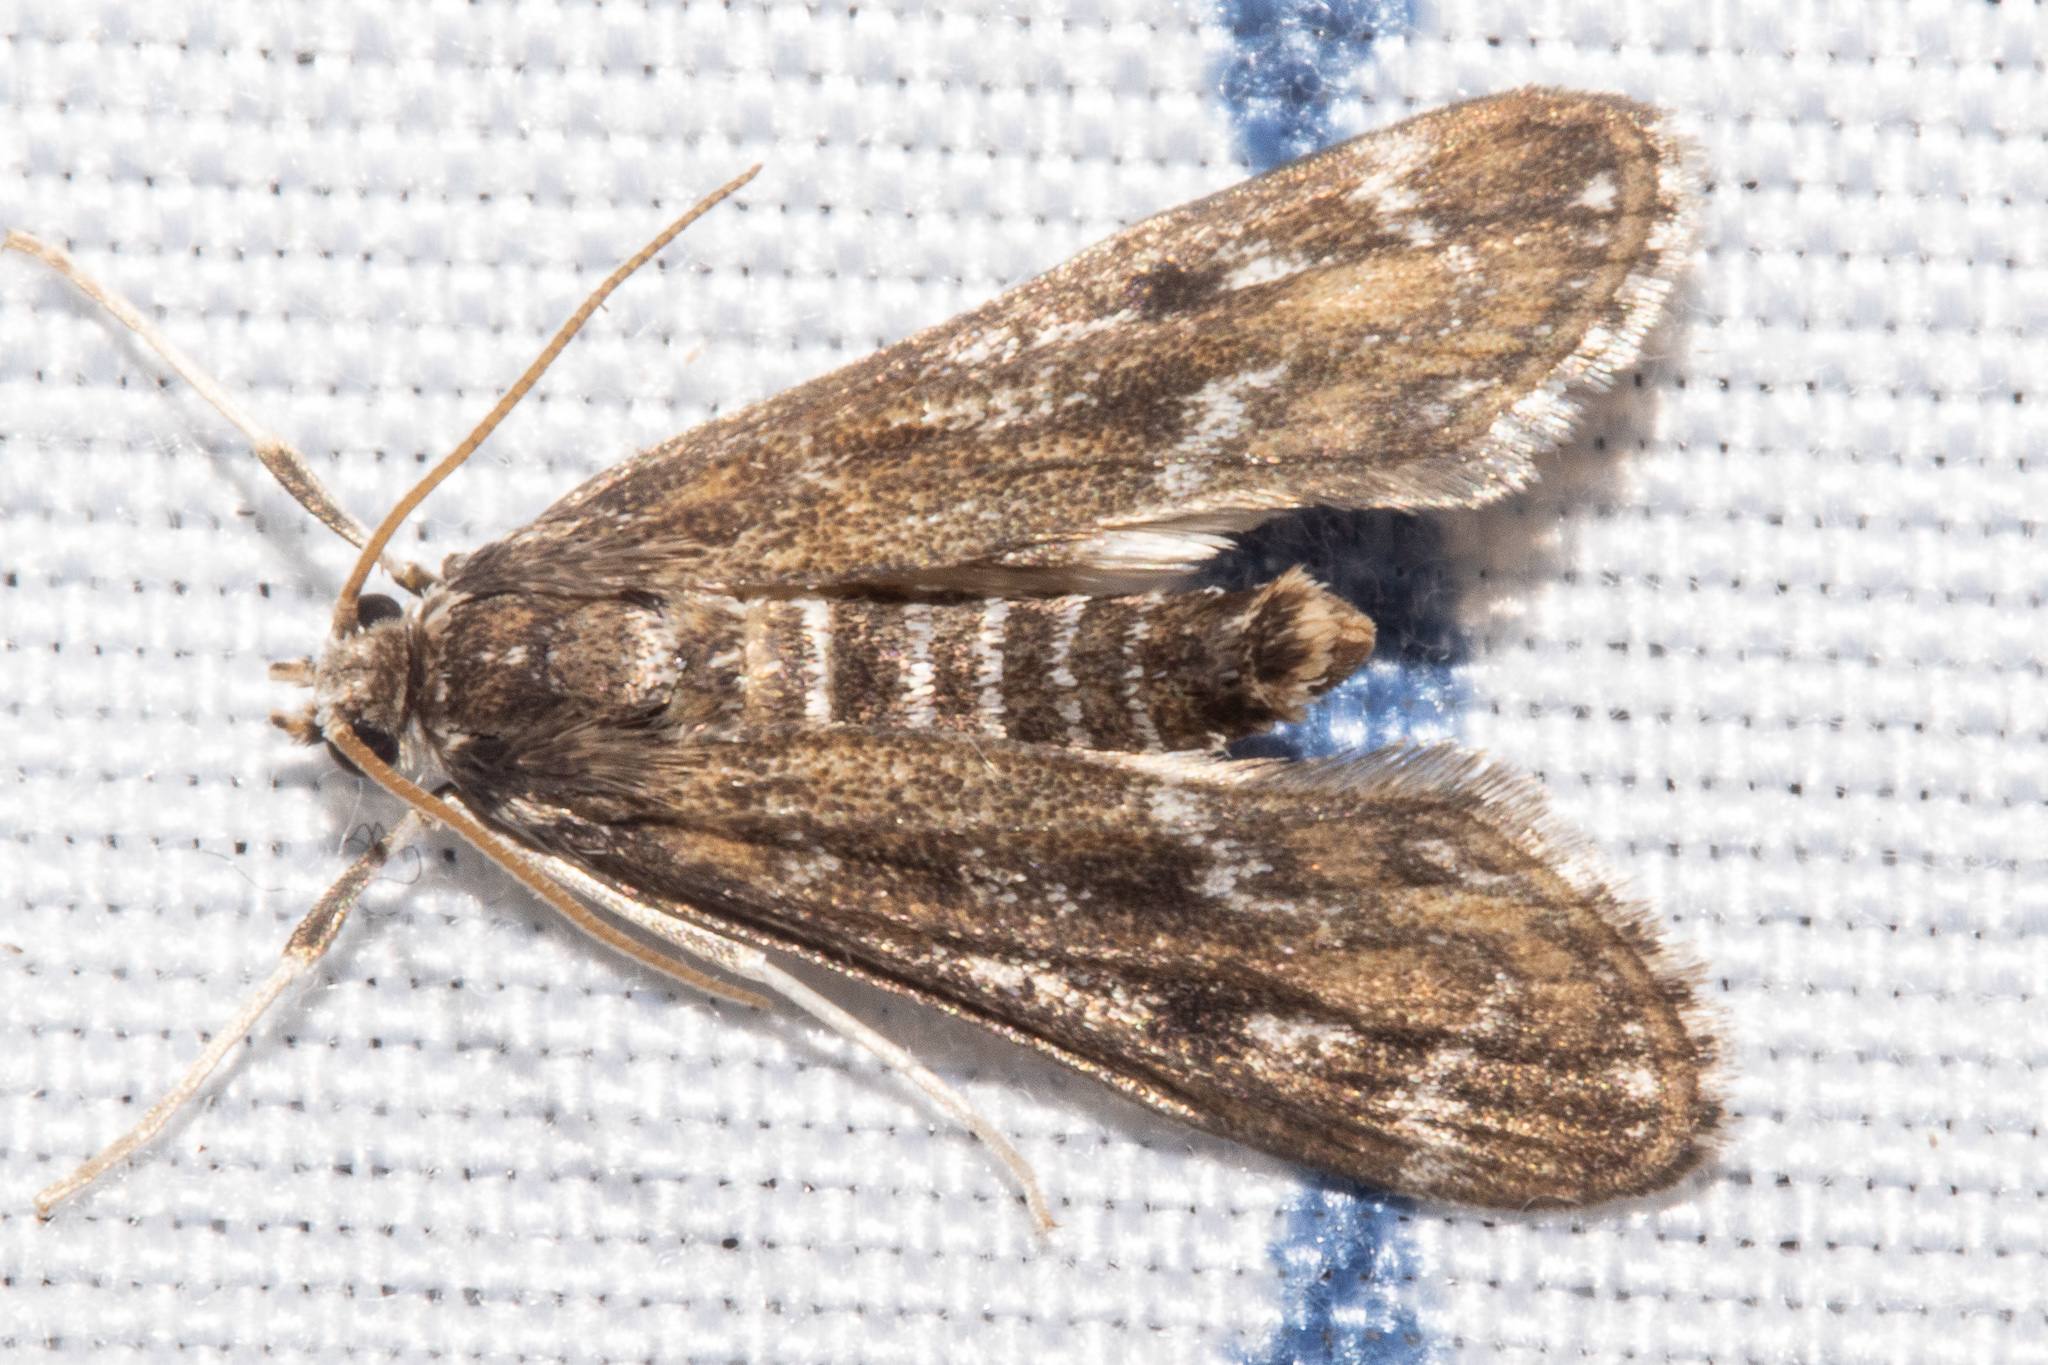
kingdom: Animalia
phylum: Arthropoda
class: Insecta
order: Lepidoptera
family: Crambidae
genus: Hygraula
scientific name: Hygraula nitens
